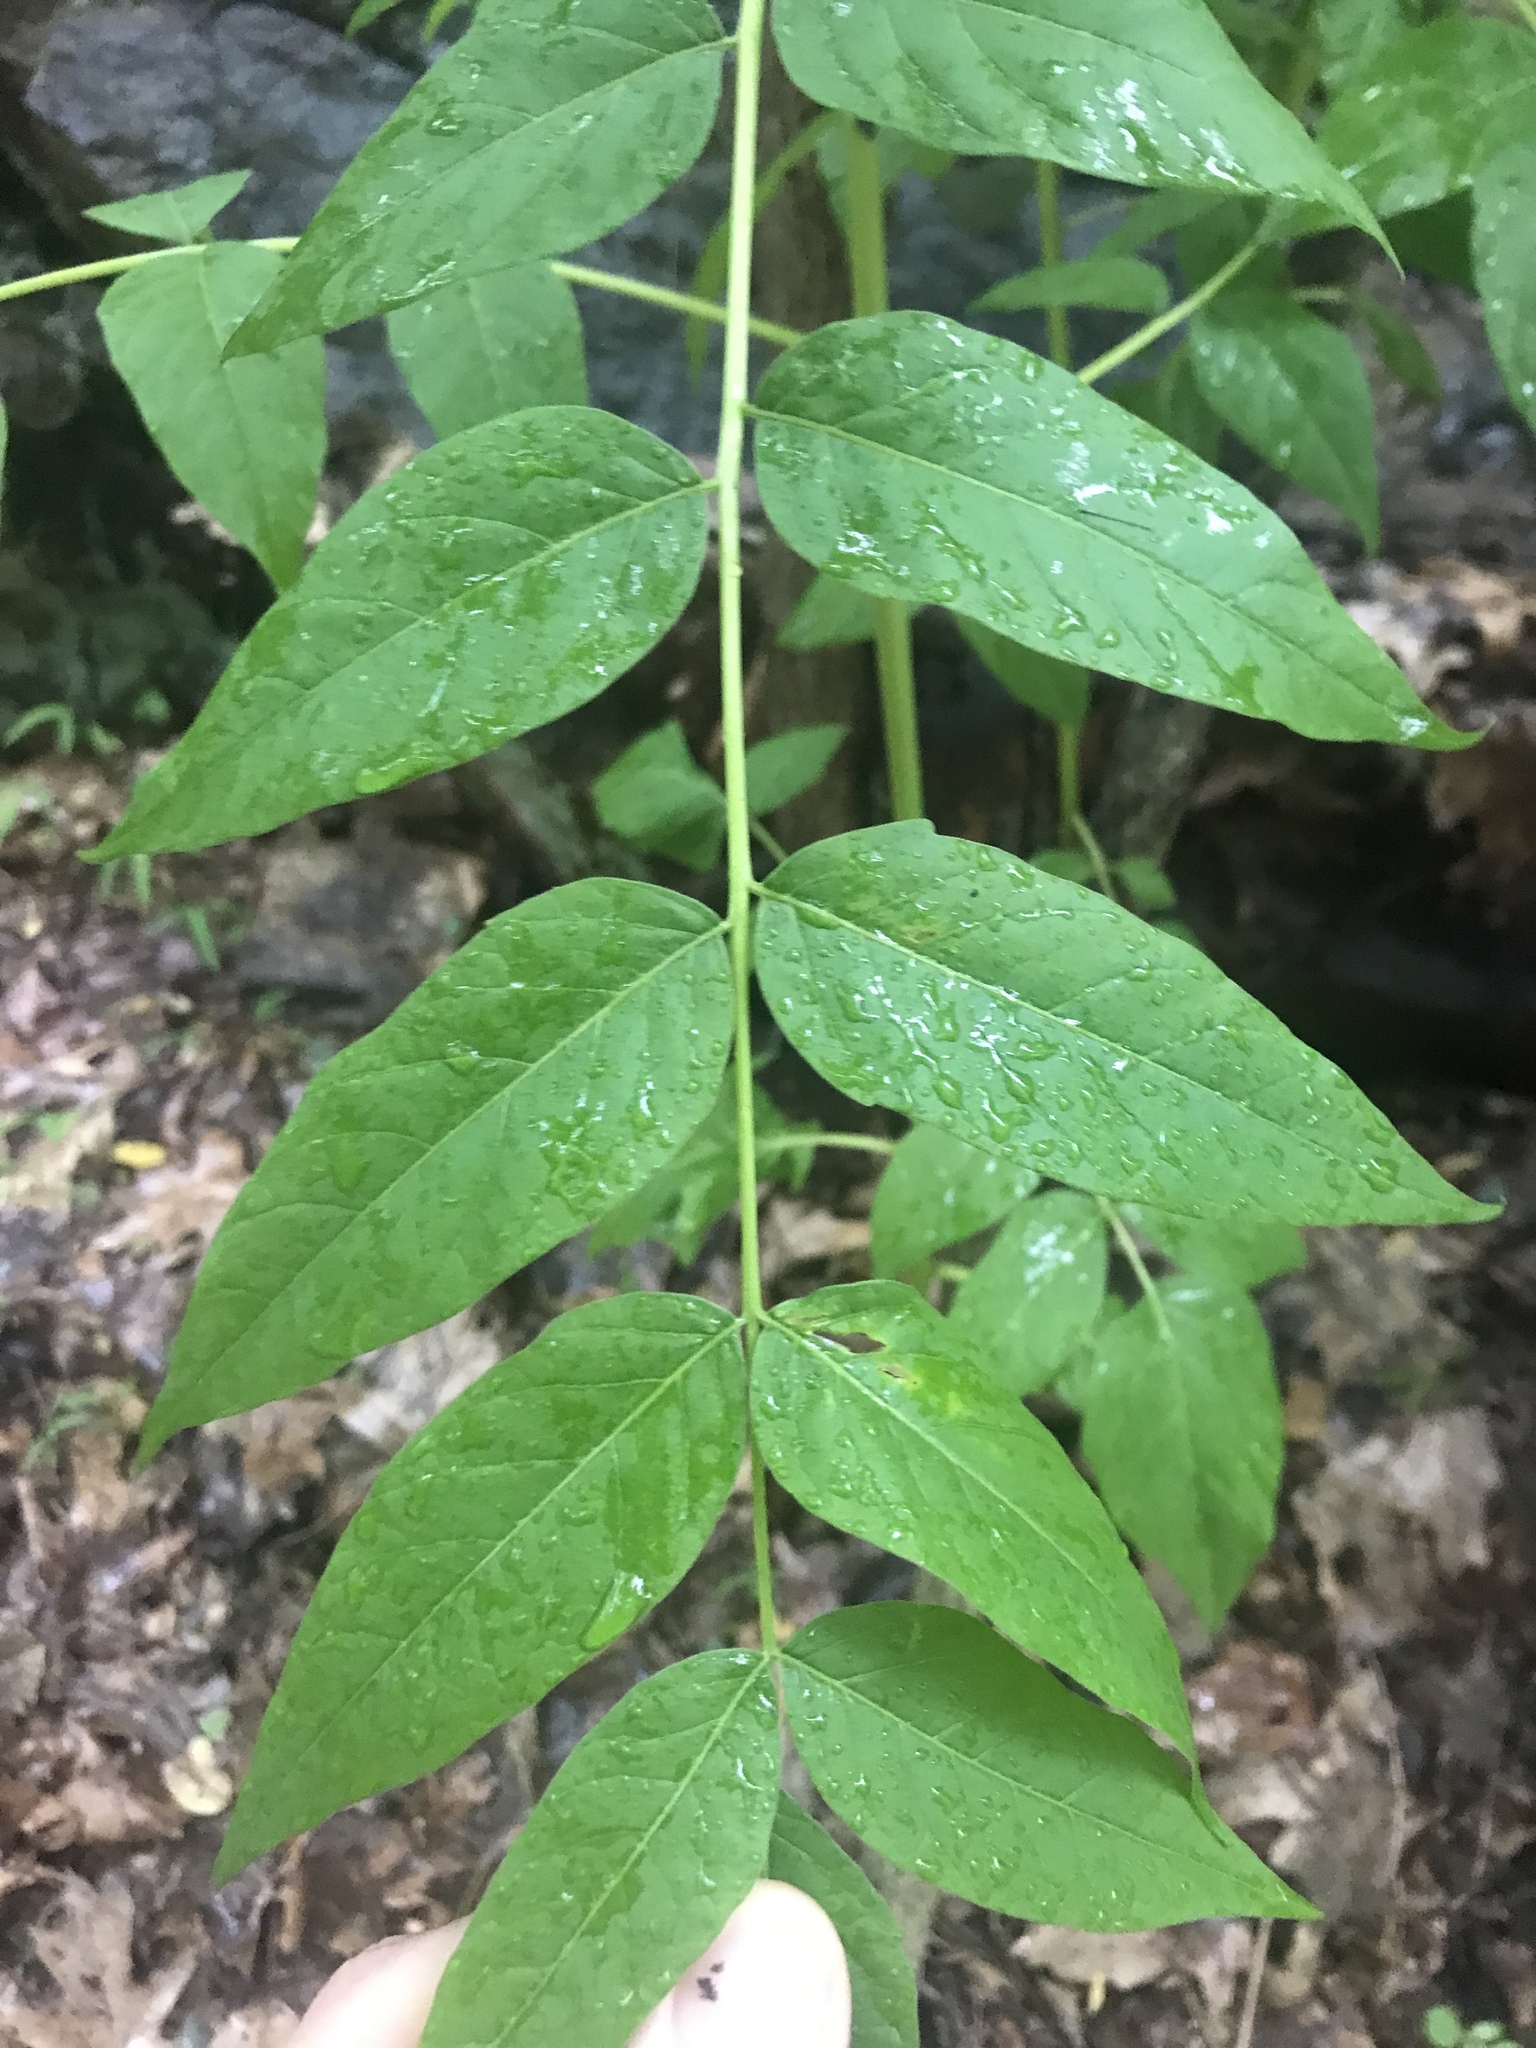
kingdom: Plantae
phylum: Tracheophyta
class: Magnoliopsida
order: Sapindales
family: Simaroubaceae
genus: Ailanthus
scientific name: Ailanthus altissima
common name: Tree-of-heaven
